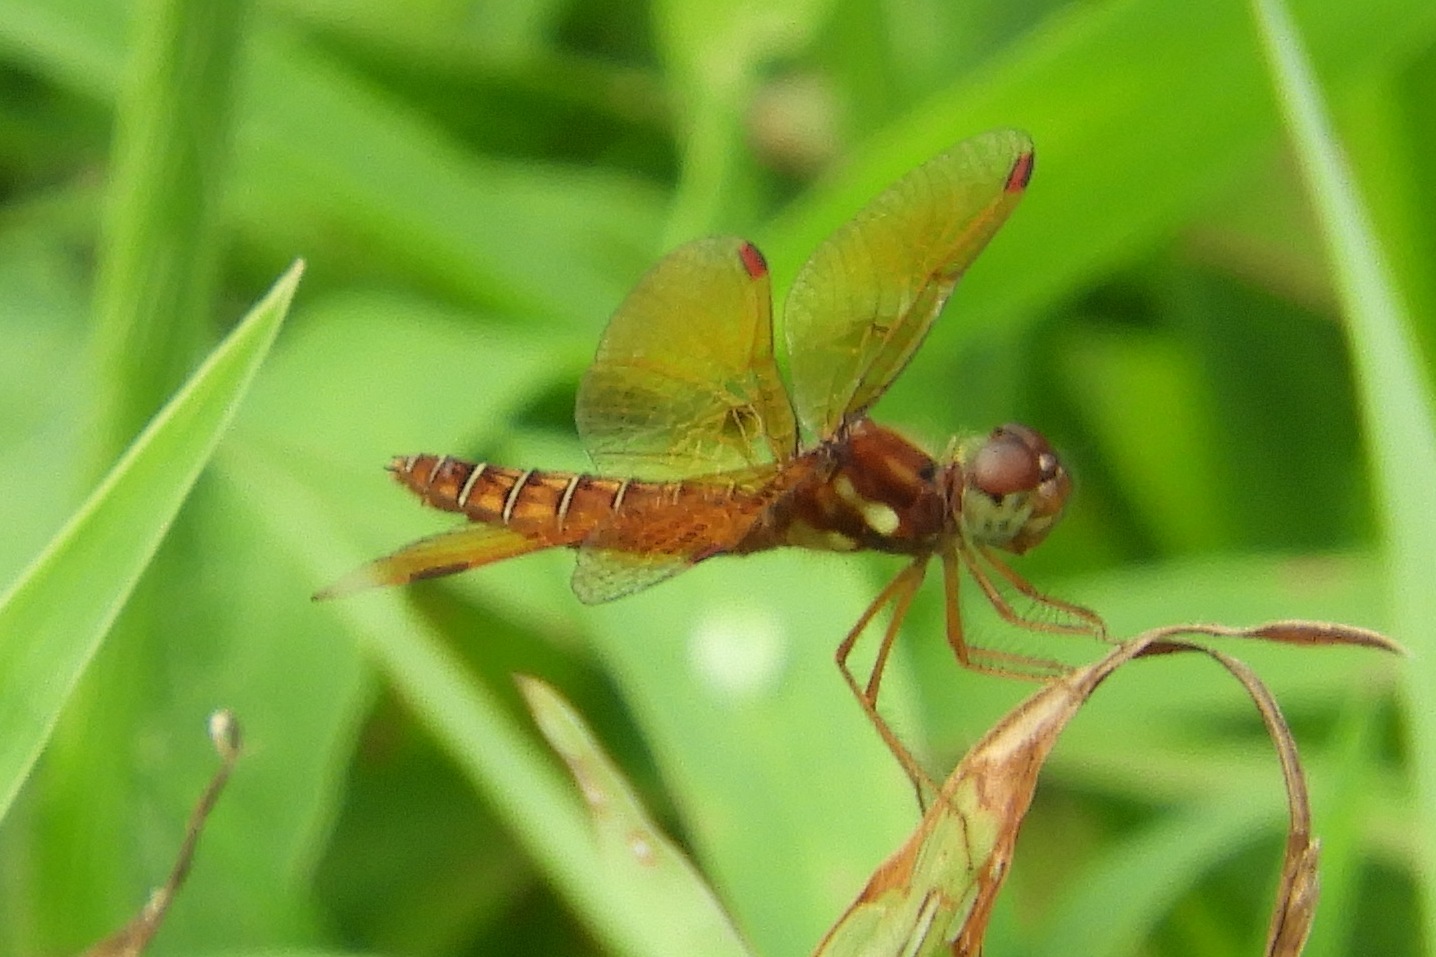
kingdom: Animalia
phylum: Arthropoda
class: Insecta
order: Odonata
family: Libellulidae
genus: Perithemis
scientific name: Perithemis tenera
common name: Eastern amberwing
